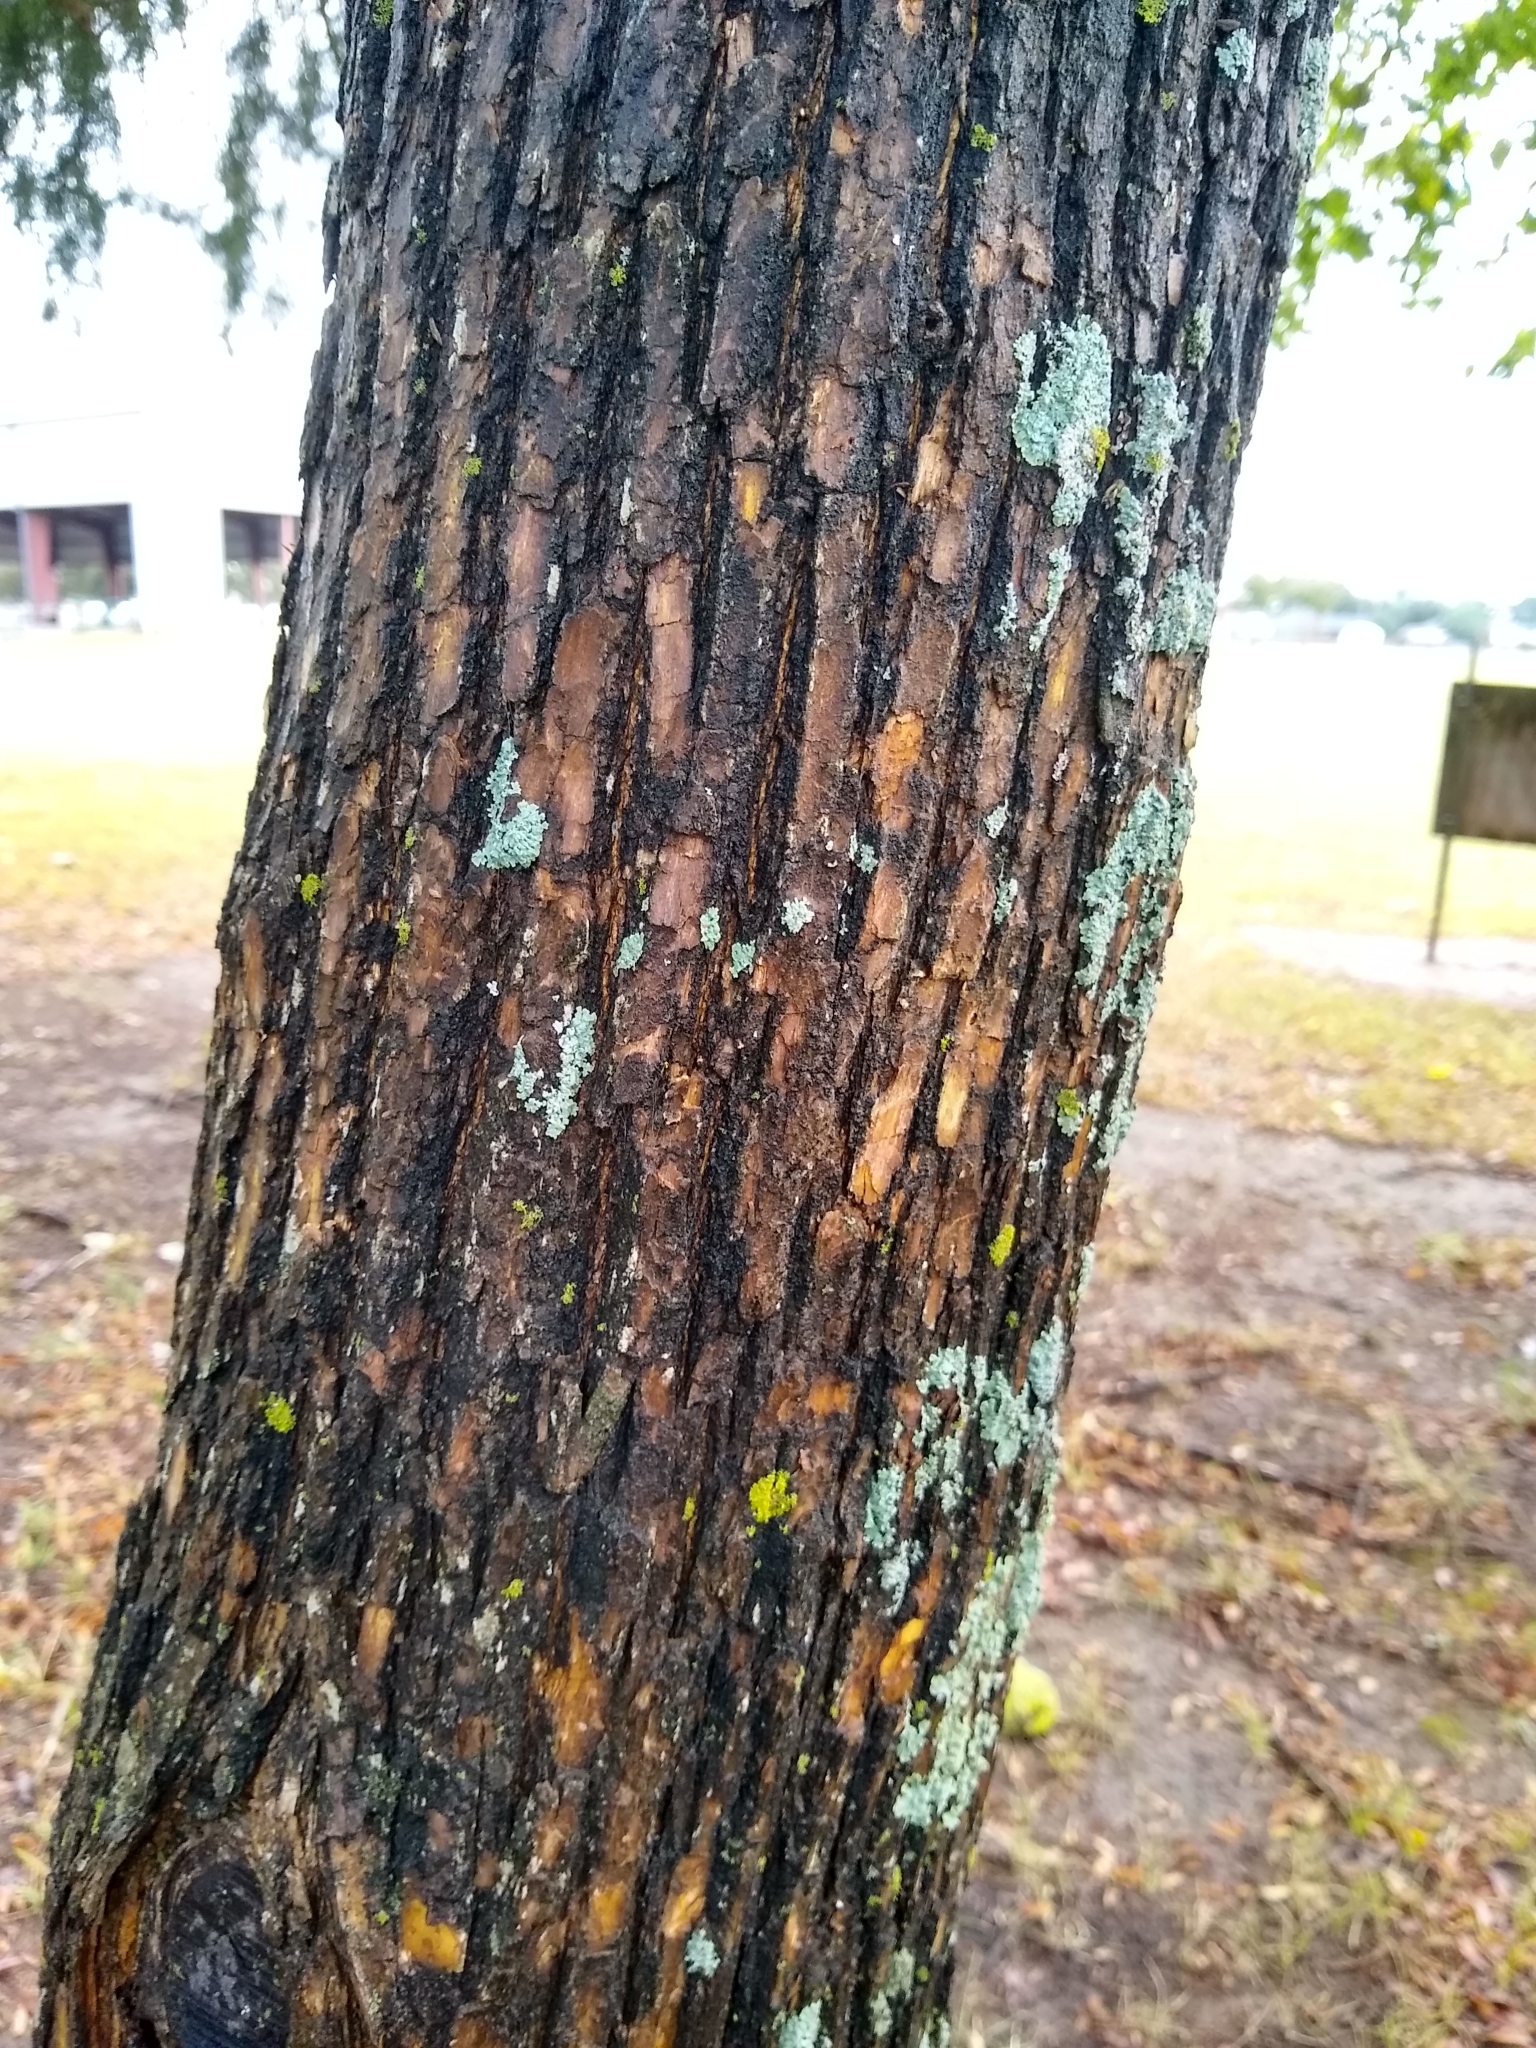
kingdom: Plantae
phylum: Tracheophyta
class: Magnoliopsida
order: Rosales
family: Moraceae
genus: Maclura
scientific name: Maclura pomifera
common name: Osage-orange
